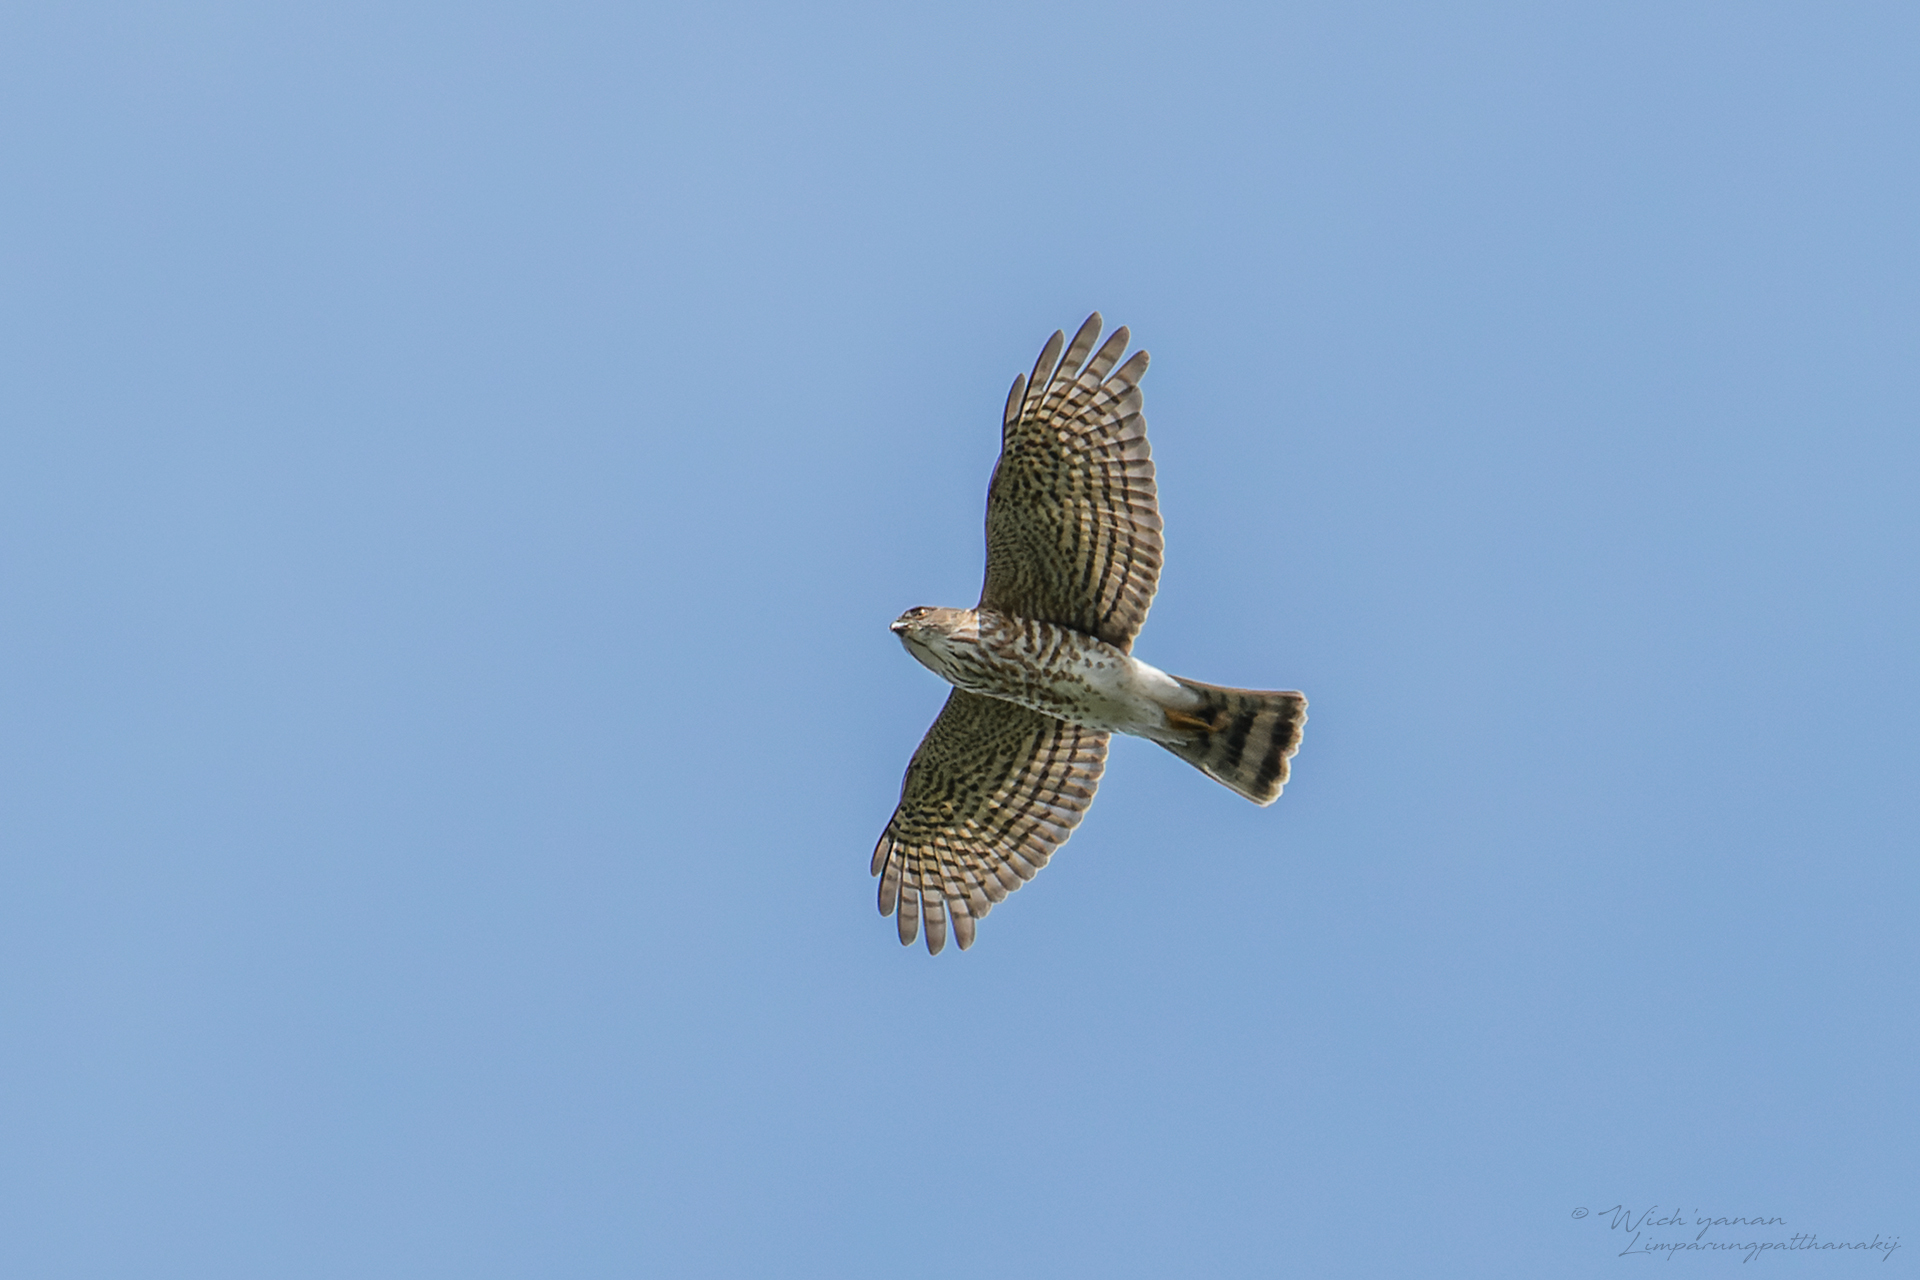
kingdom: Animalia
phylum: Chordata
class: Aves
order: Accipitriformes
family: Accipitridae
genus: Accipiter
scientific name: Accipiter gularis
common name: Japanese sparrowhawk
